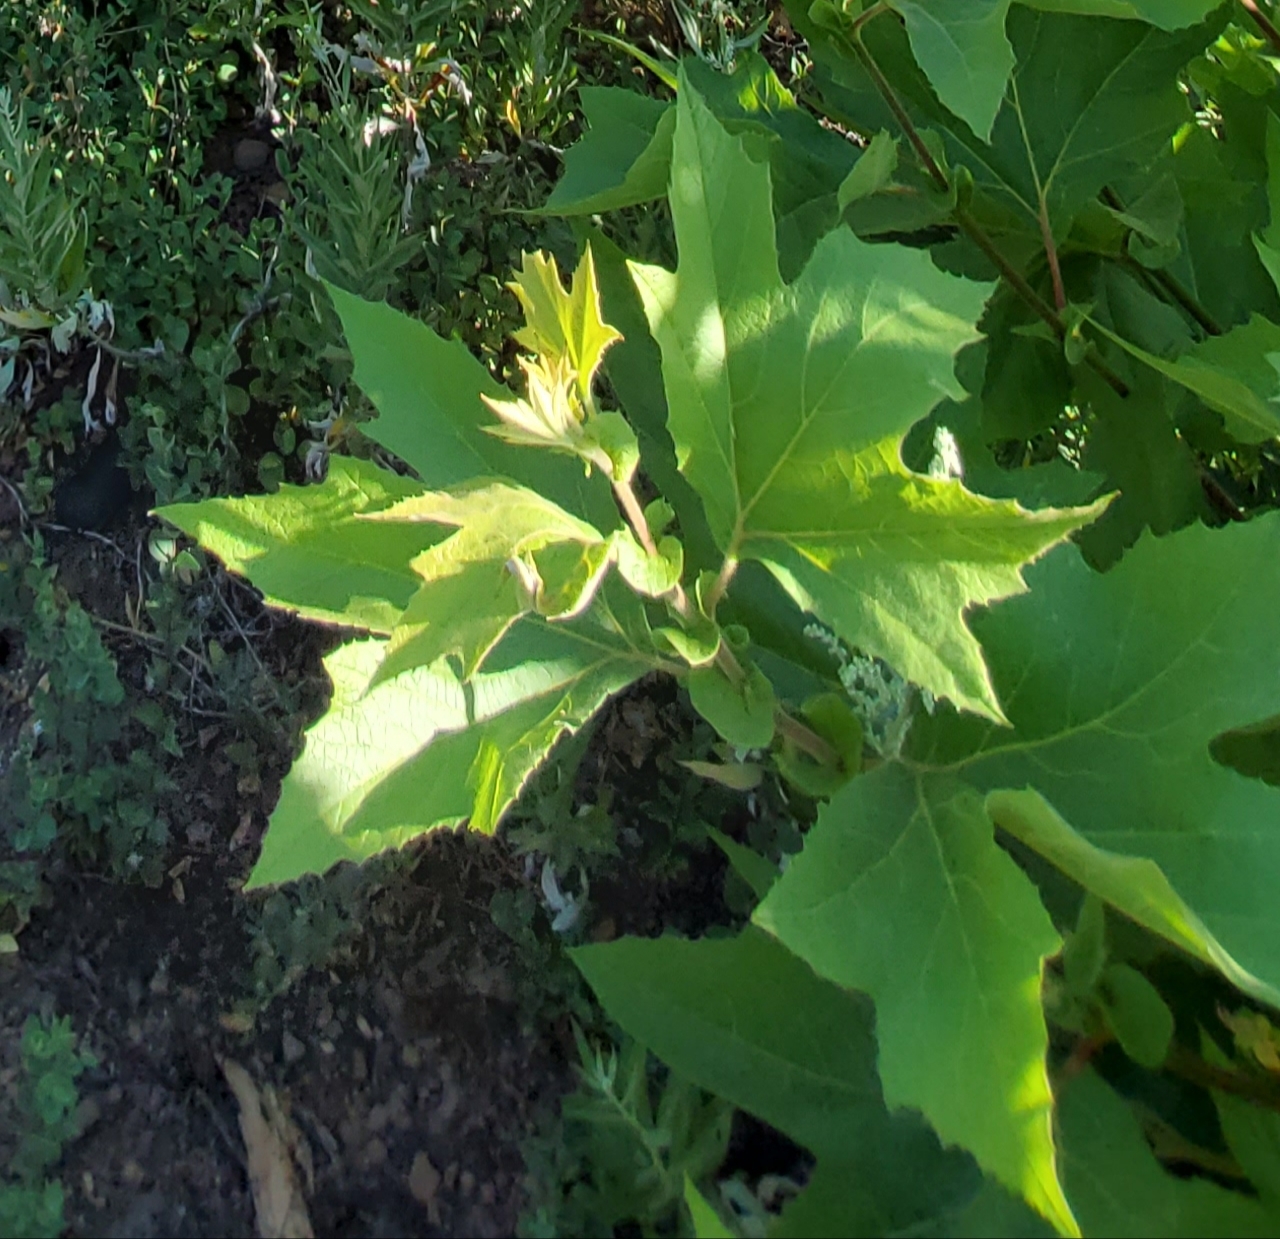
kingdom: Plantae
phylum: Tracheophyta
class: Magnoliopsida
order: Proteales
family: Platanaceae
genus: Platanus
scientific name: Platanus racemosa
